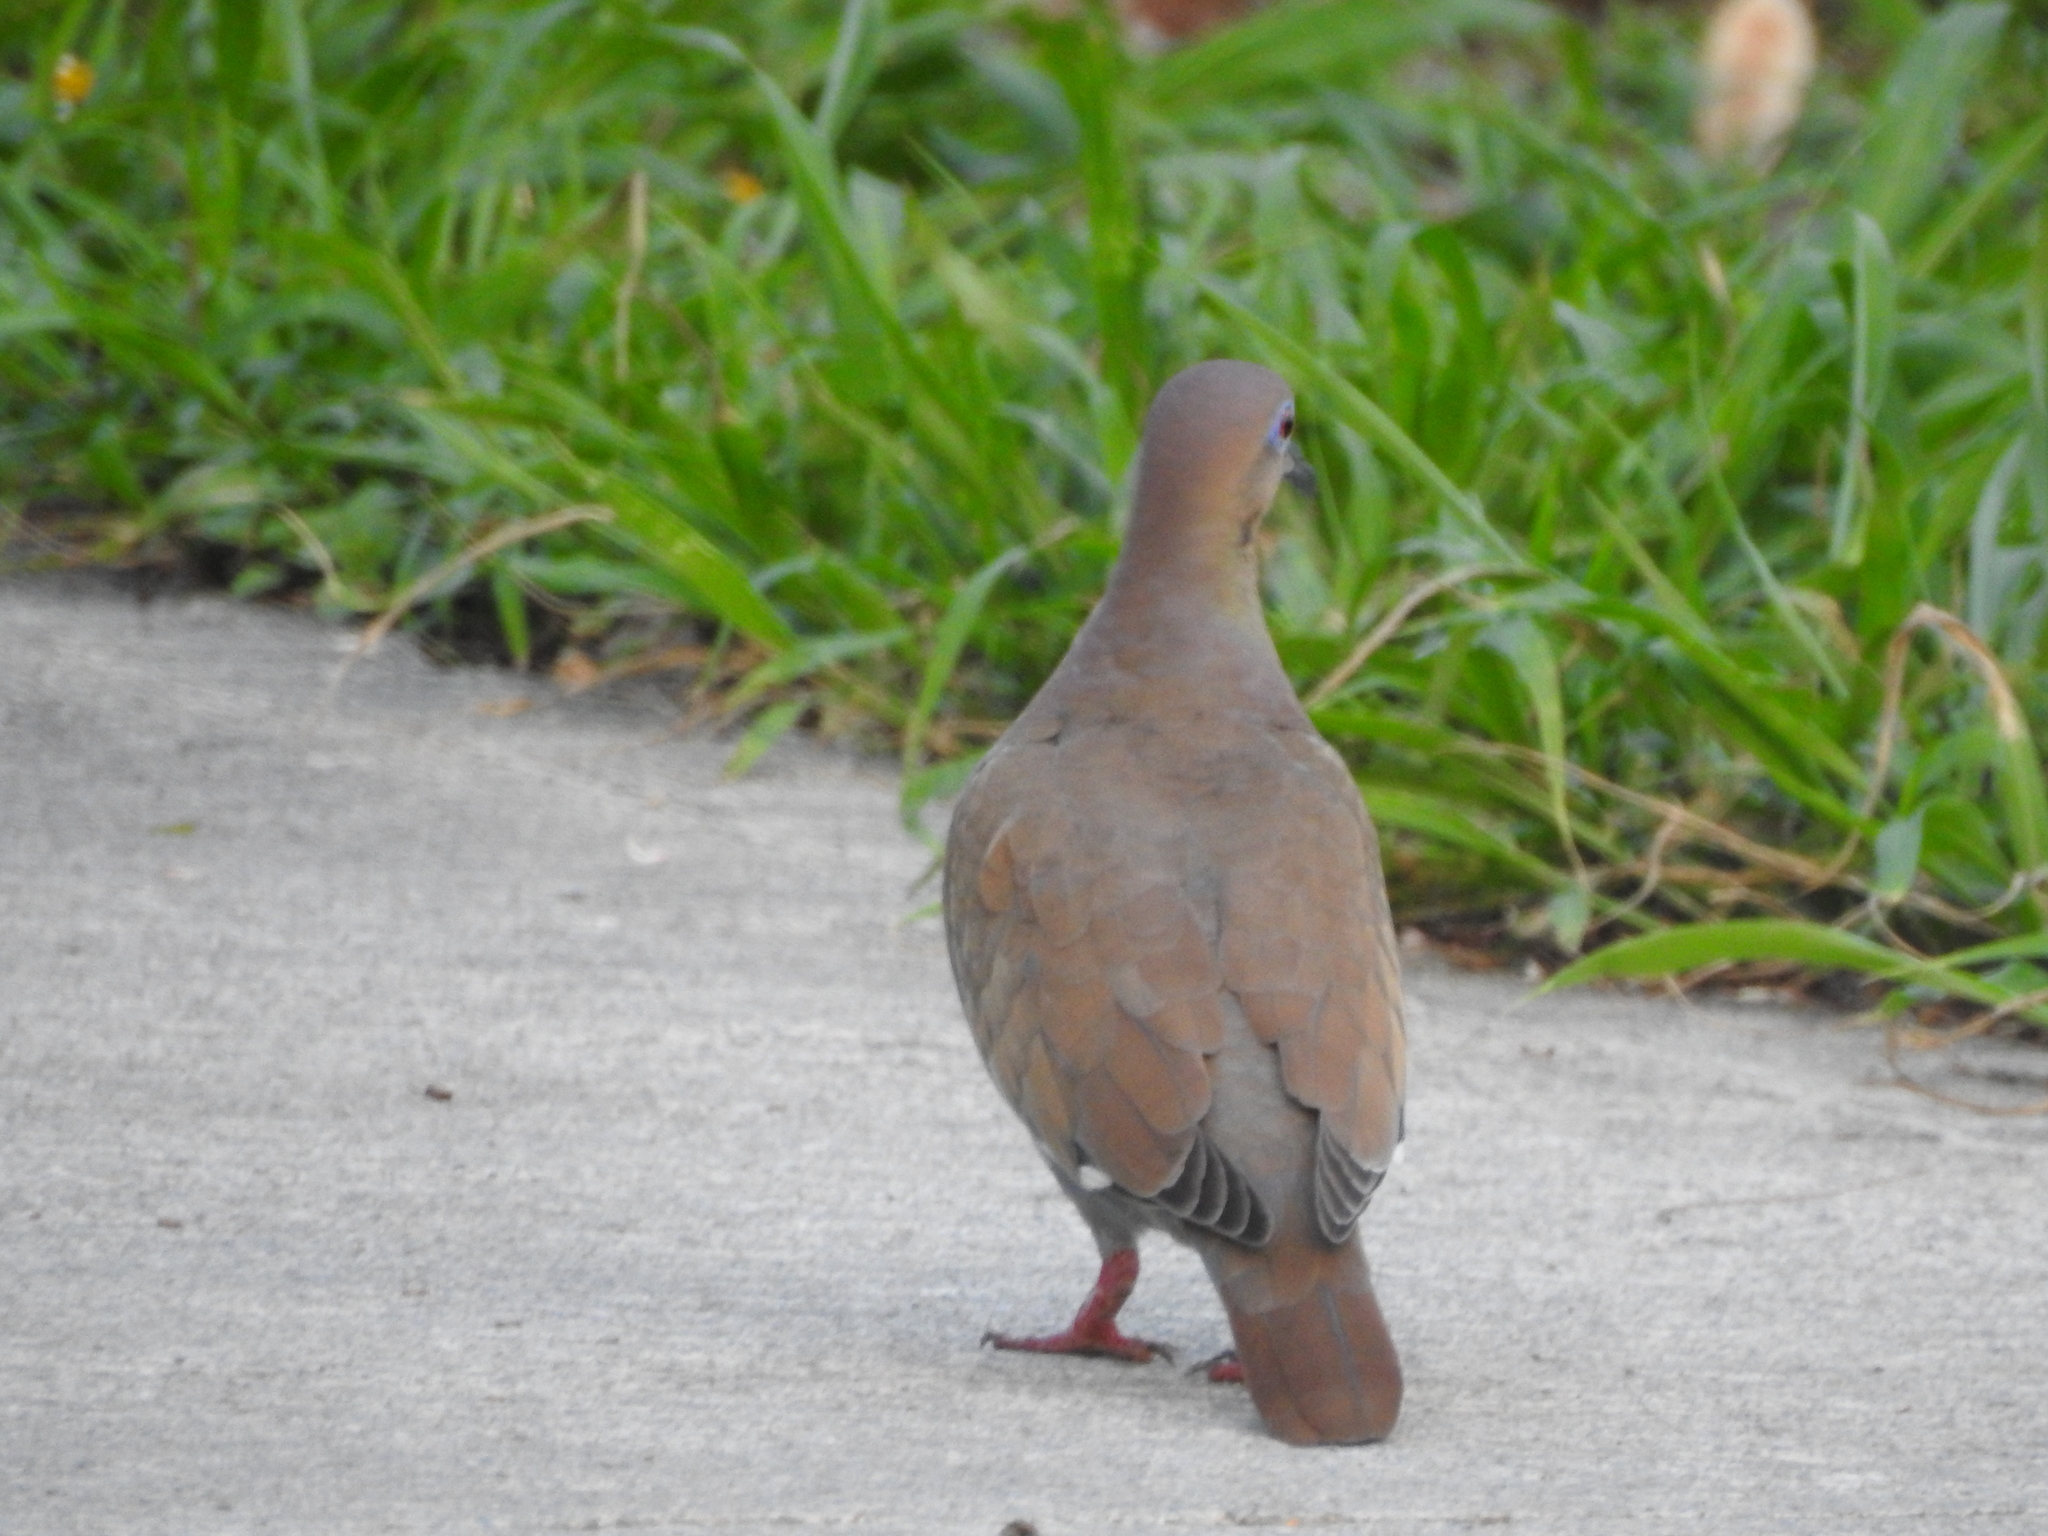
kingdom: Animalia
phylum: Chordata
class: Aves
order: Columbiformes
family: Columbidae
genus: Zenaida
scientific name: Zenaida asiatica
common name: White-winged dove
